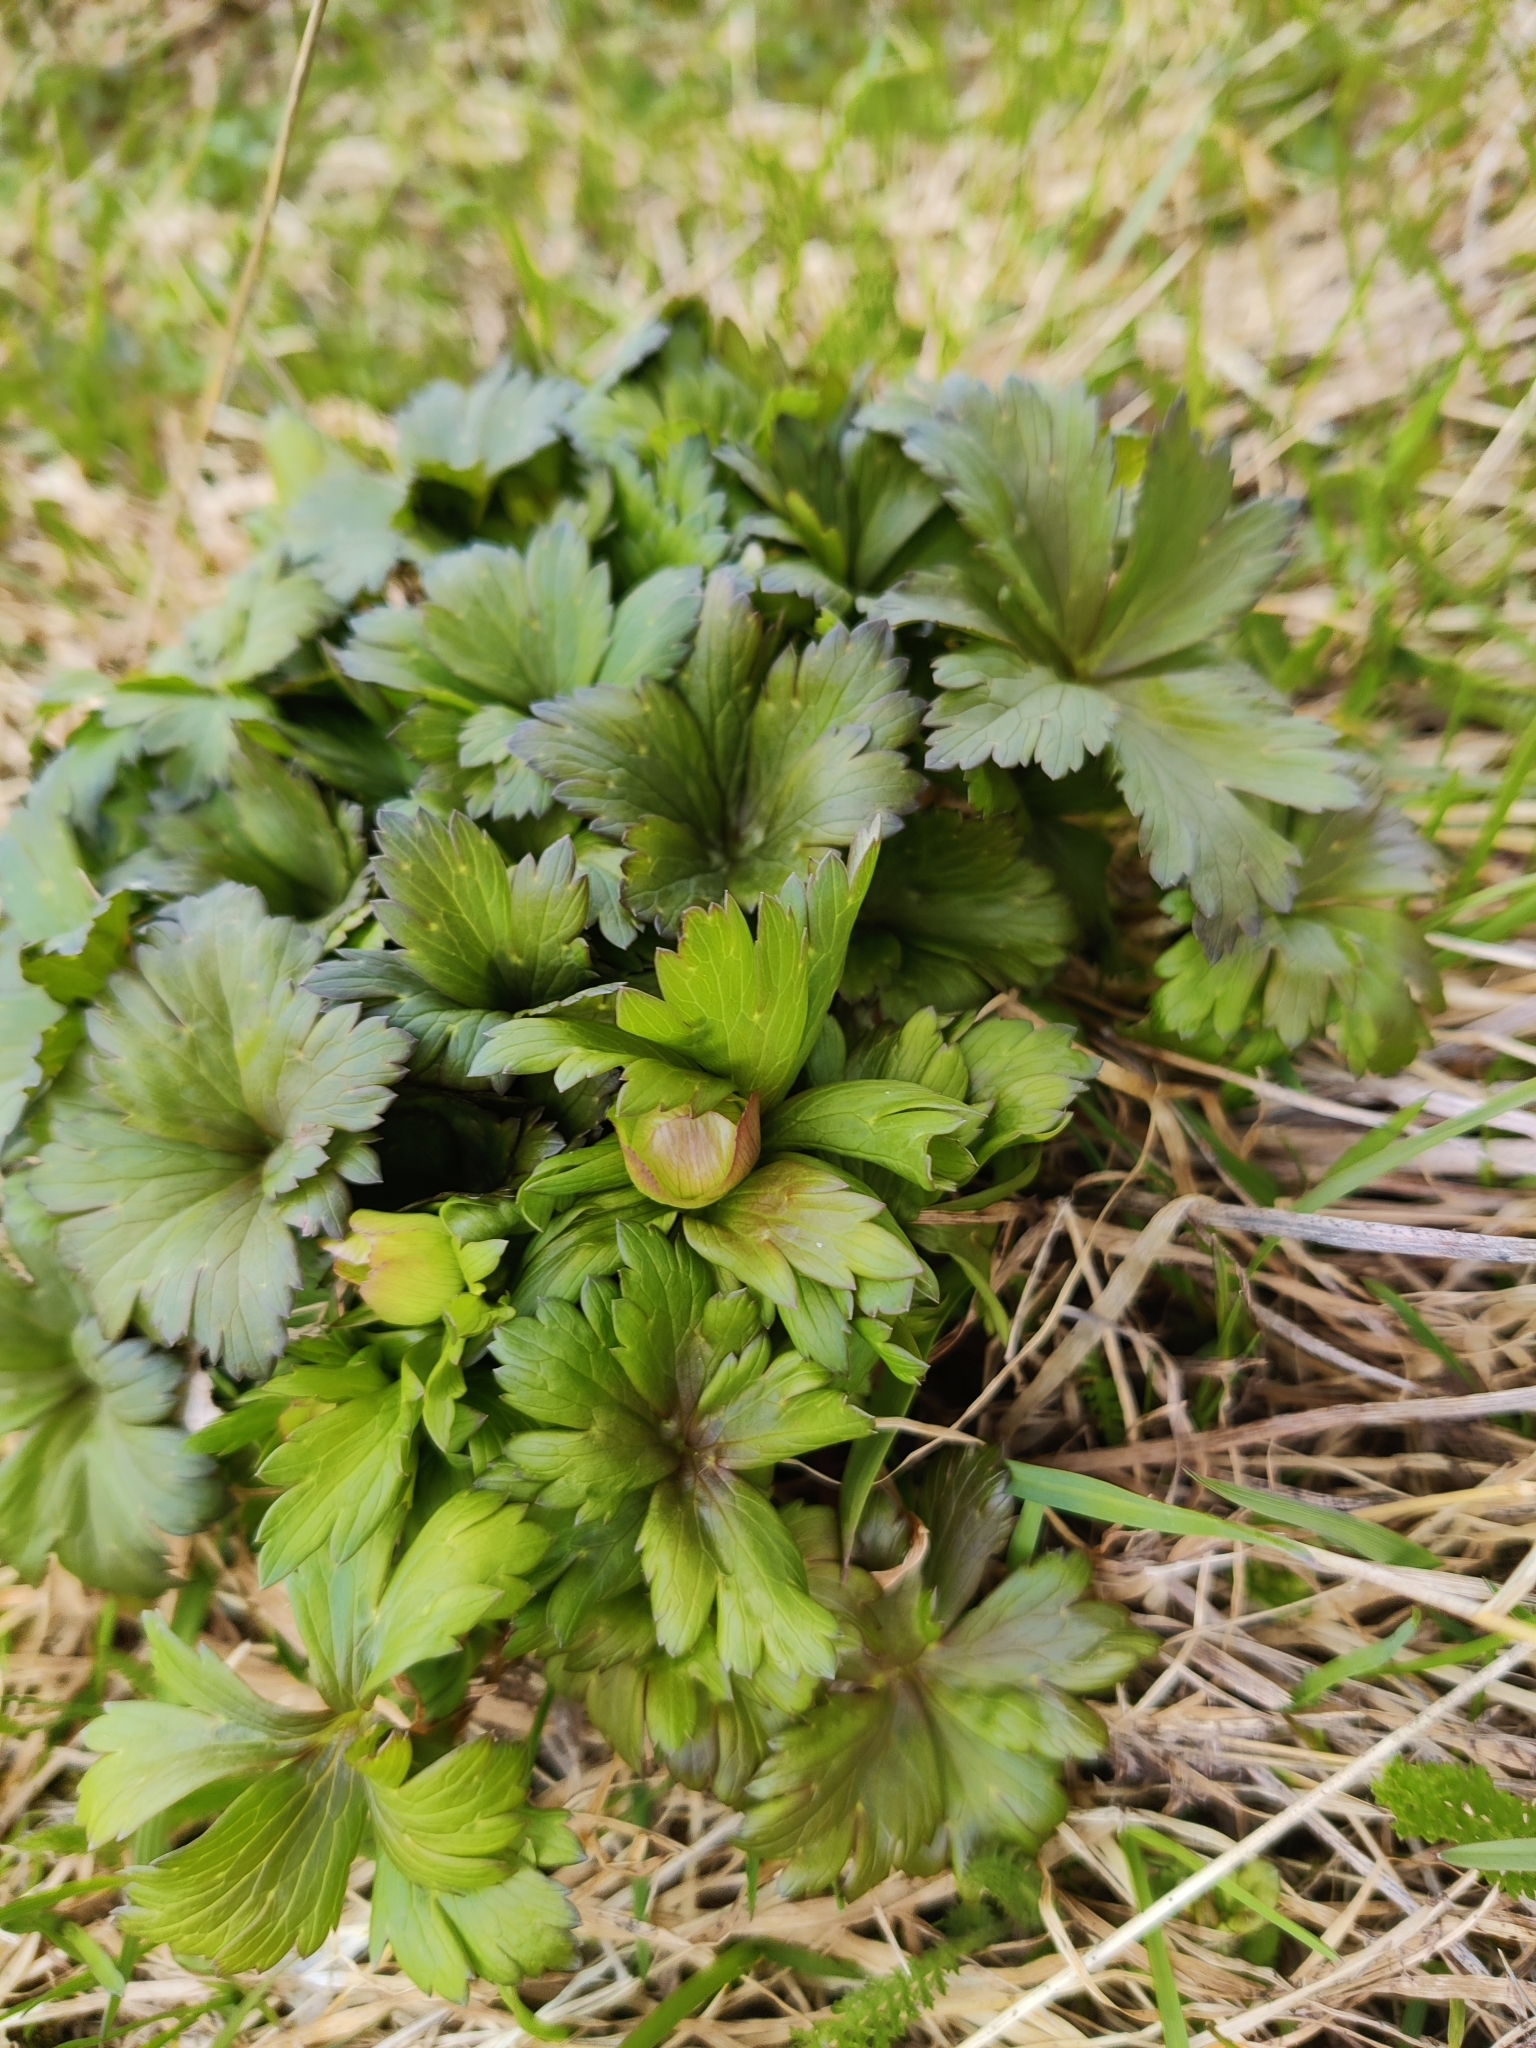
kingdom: Plantae
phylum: Tracheophyta
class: Magnoliopsida
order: Ranunculales
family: Ranunculaceae
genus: Trollius
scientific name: Trollius europaeus
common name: European globeflower
